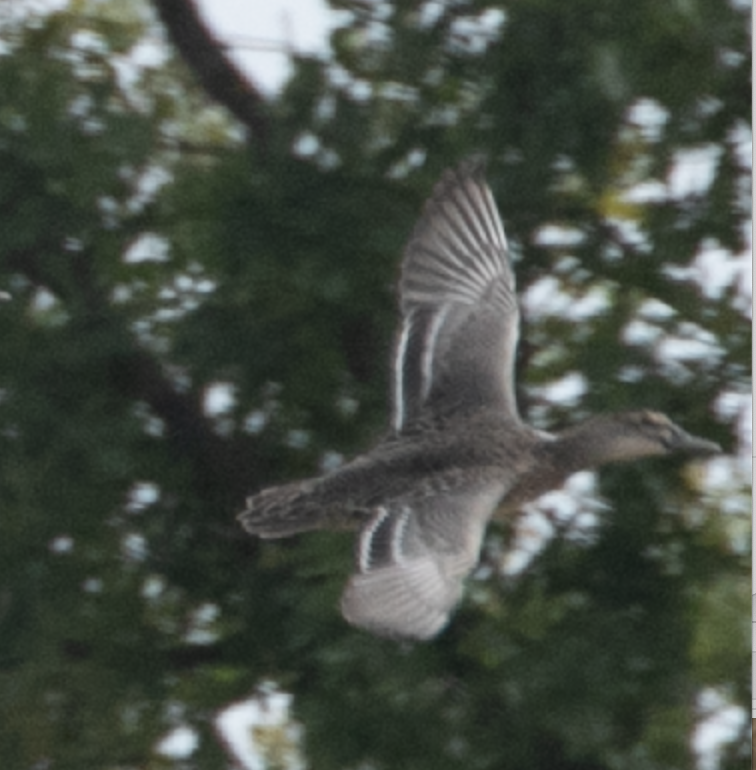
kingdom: Animalia
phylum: Chordata
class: Aves
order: Anseriformes
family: Anatidae
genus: Spatula
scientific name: Spatula querquedula
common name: Garganey
